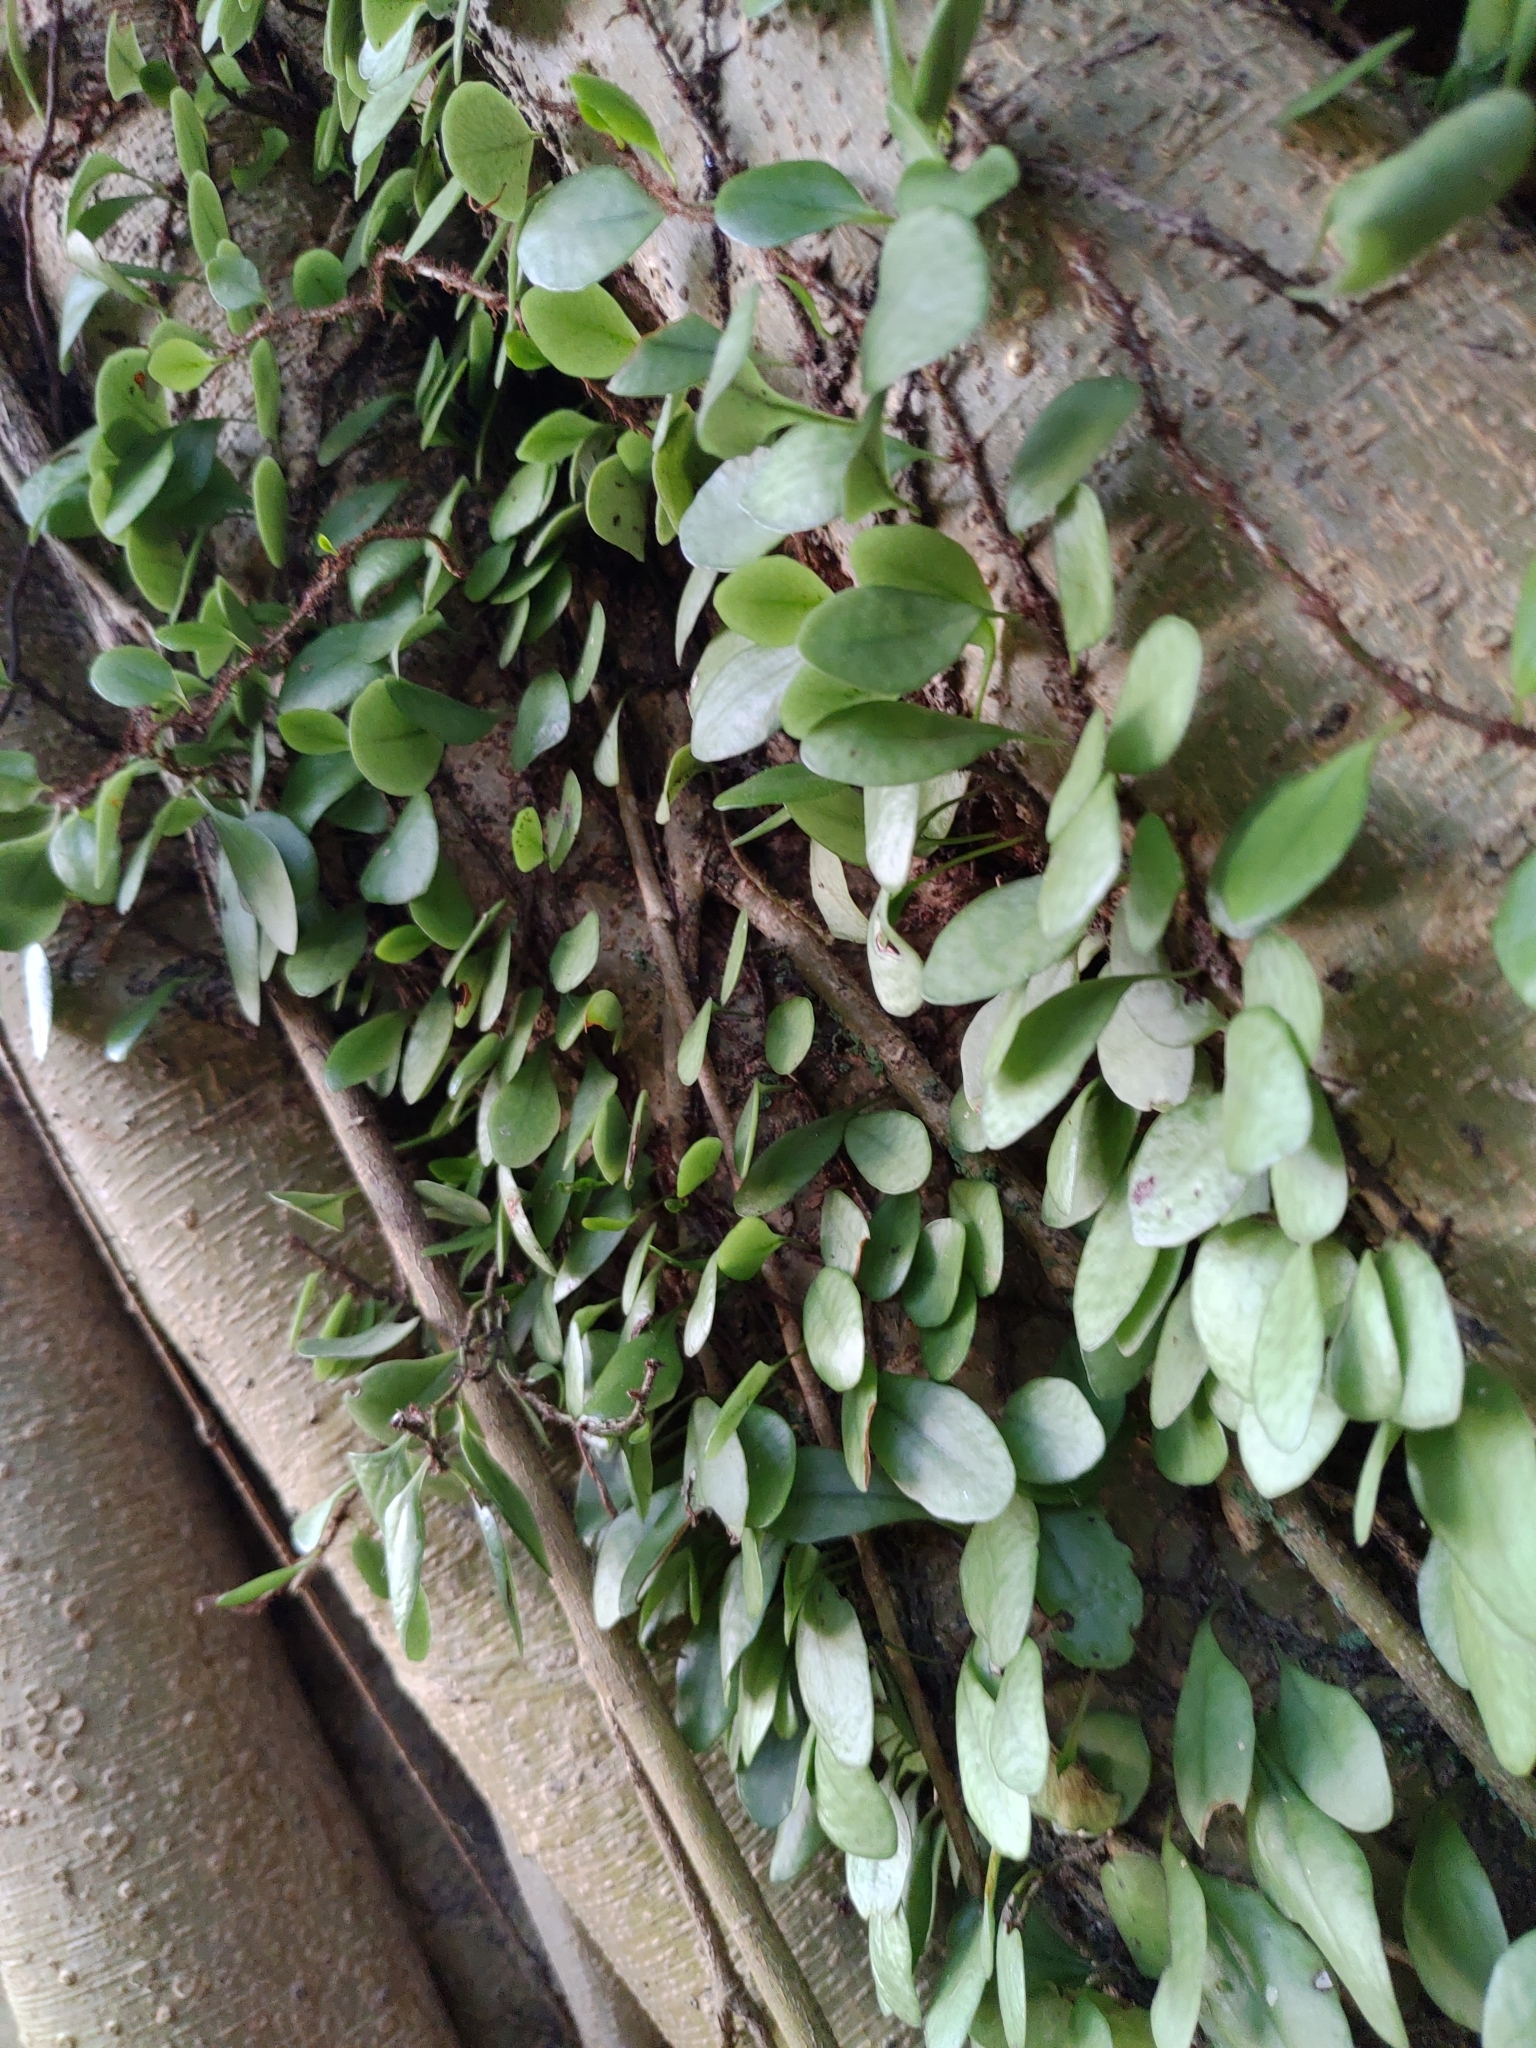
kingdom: Plantae
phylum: Tracheophyta
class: Polypodiopsida
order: Polypodiales
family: Polypodiaceae
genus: Lepisorus
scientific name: Lepisorus microphyllus
